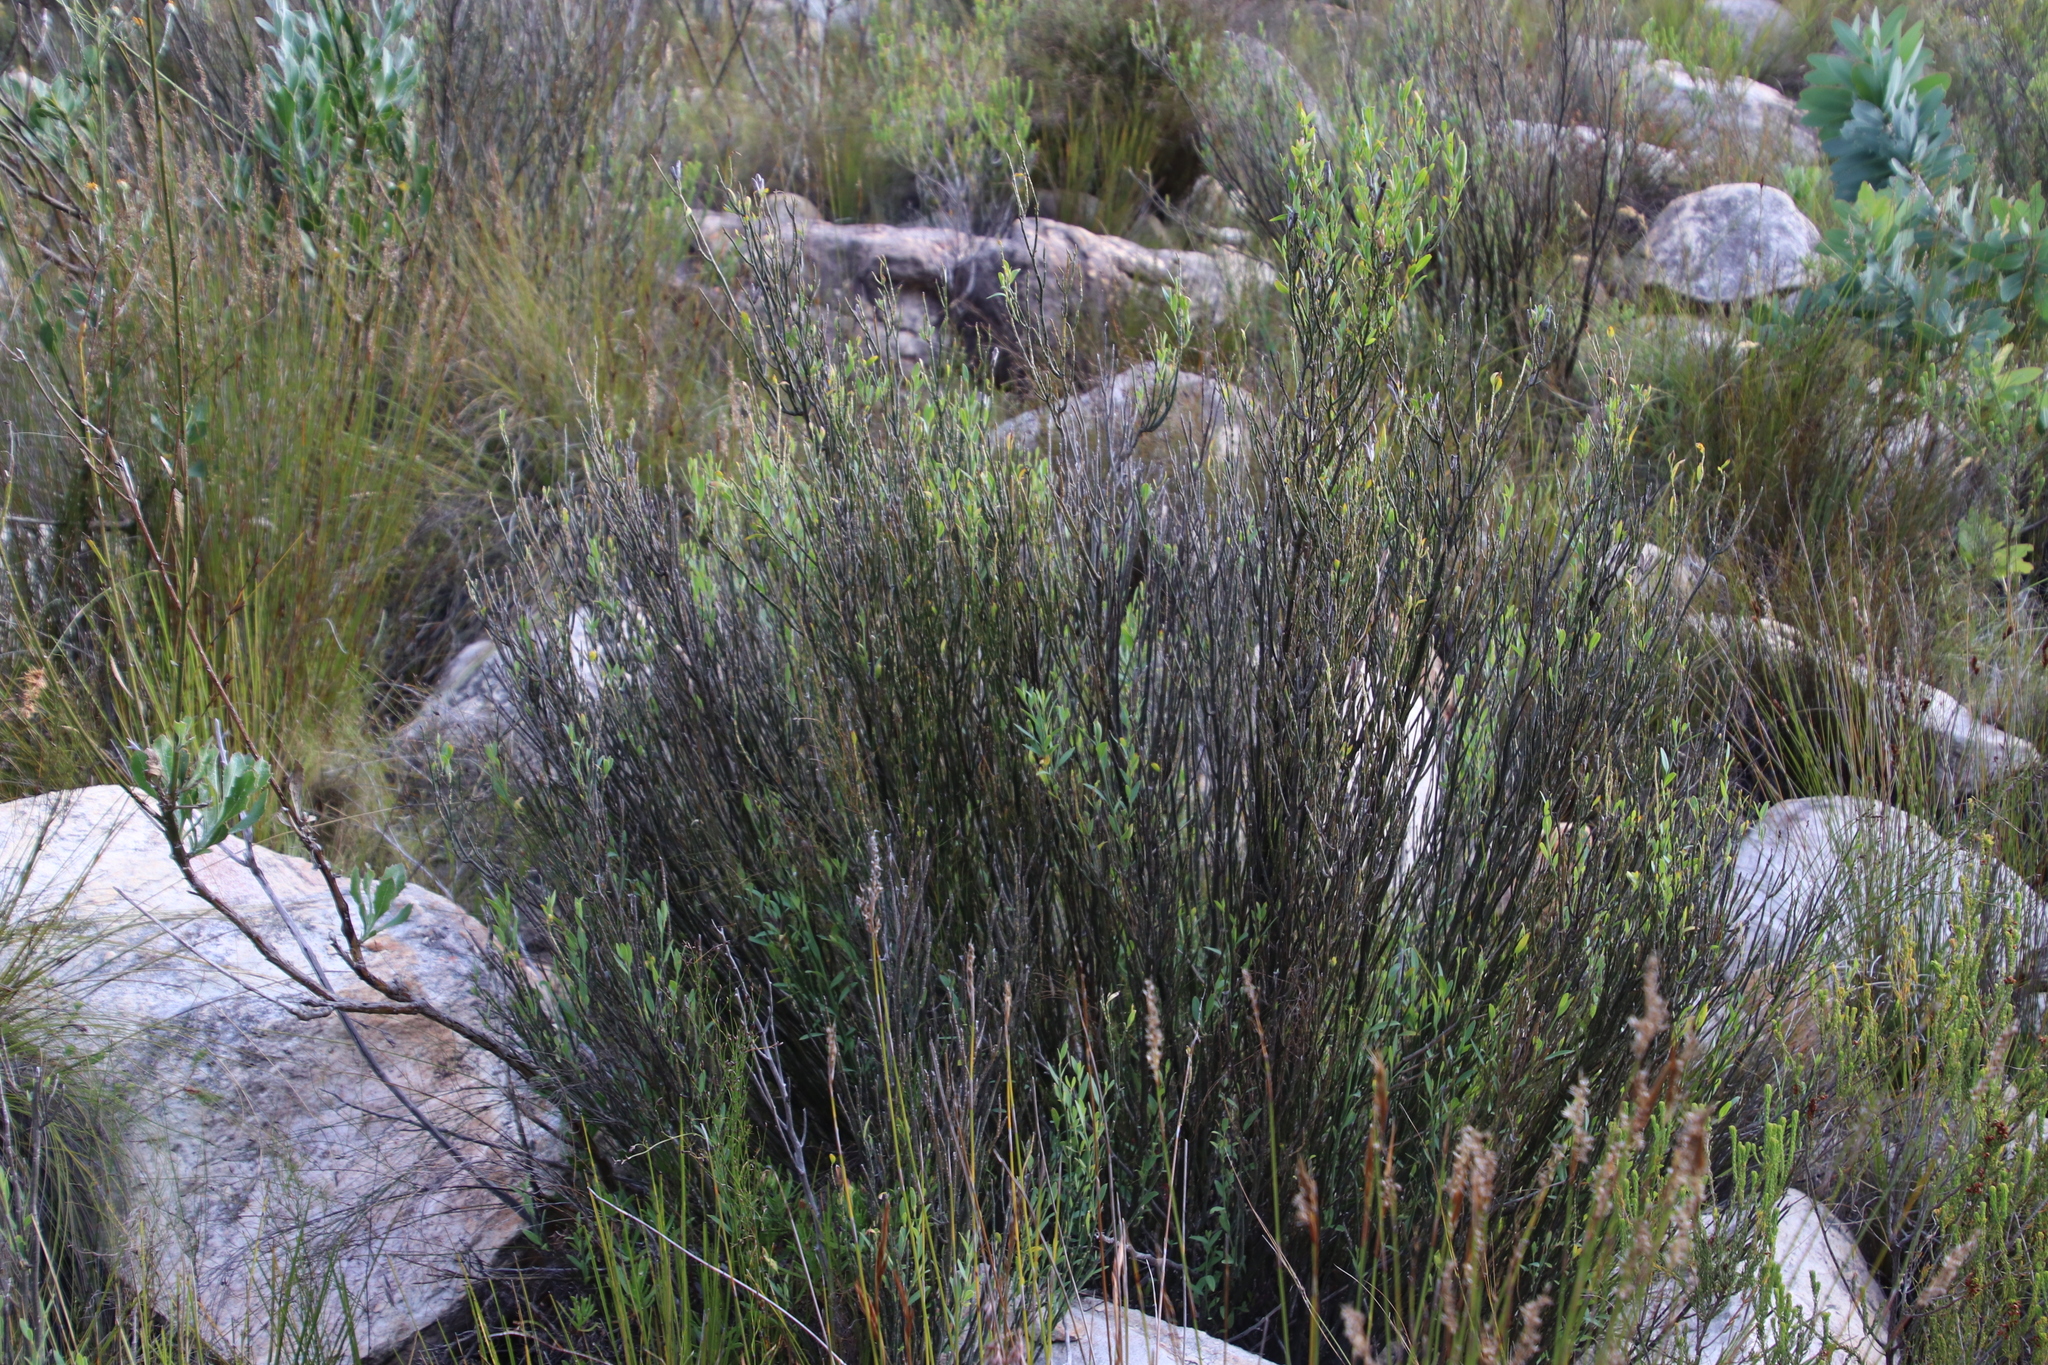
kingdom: Plantae
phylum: Tracheophyta
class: Magnoliopsida
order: Solanales
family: Montiniaceae
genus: Montinia
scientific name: Montinia caryophyllacea
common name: Wild clove-bush
